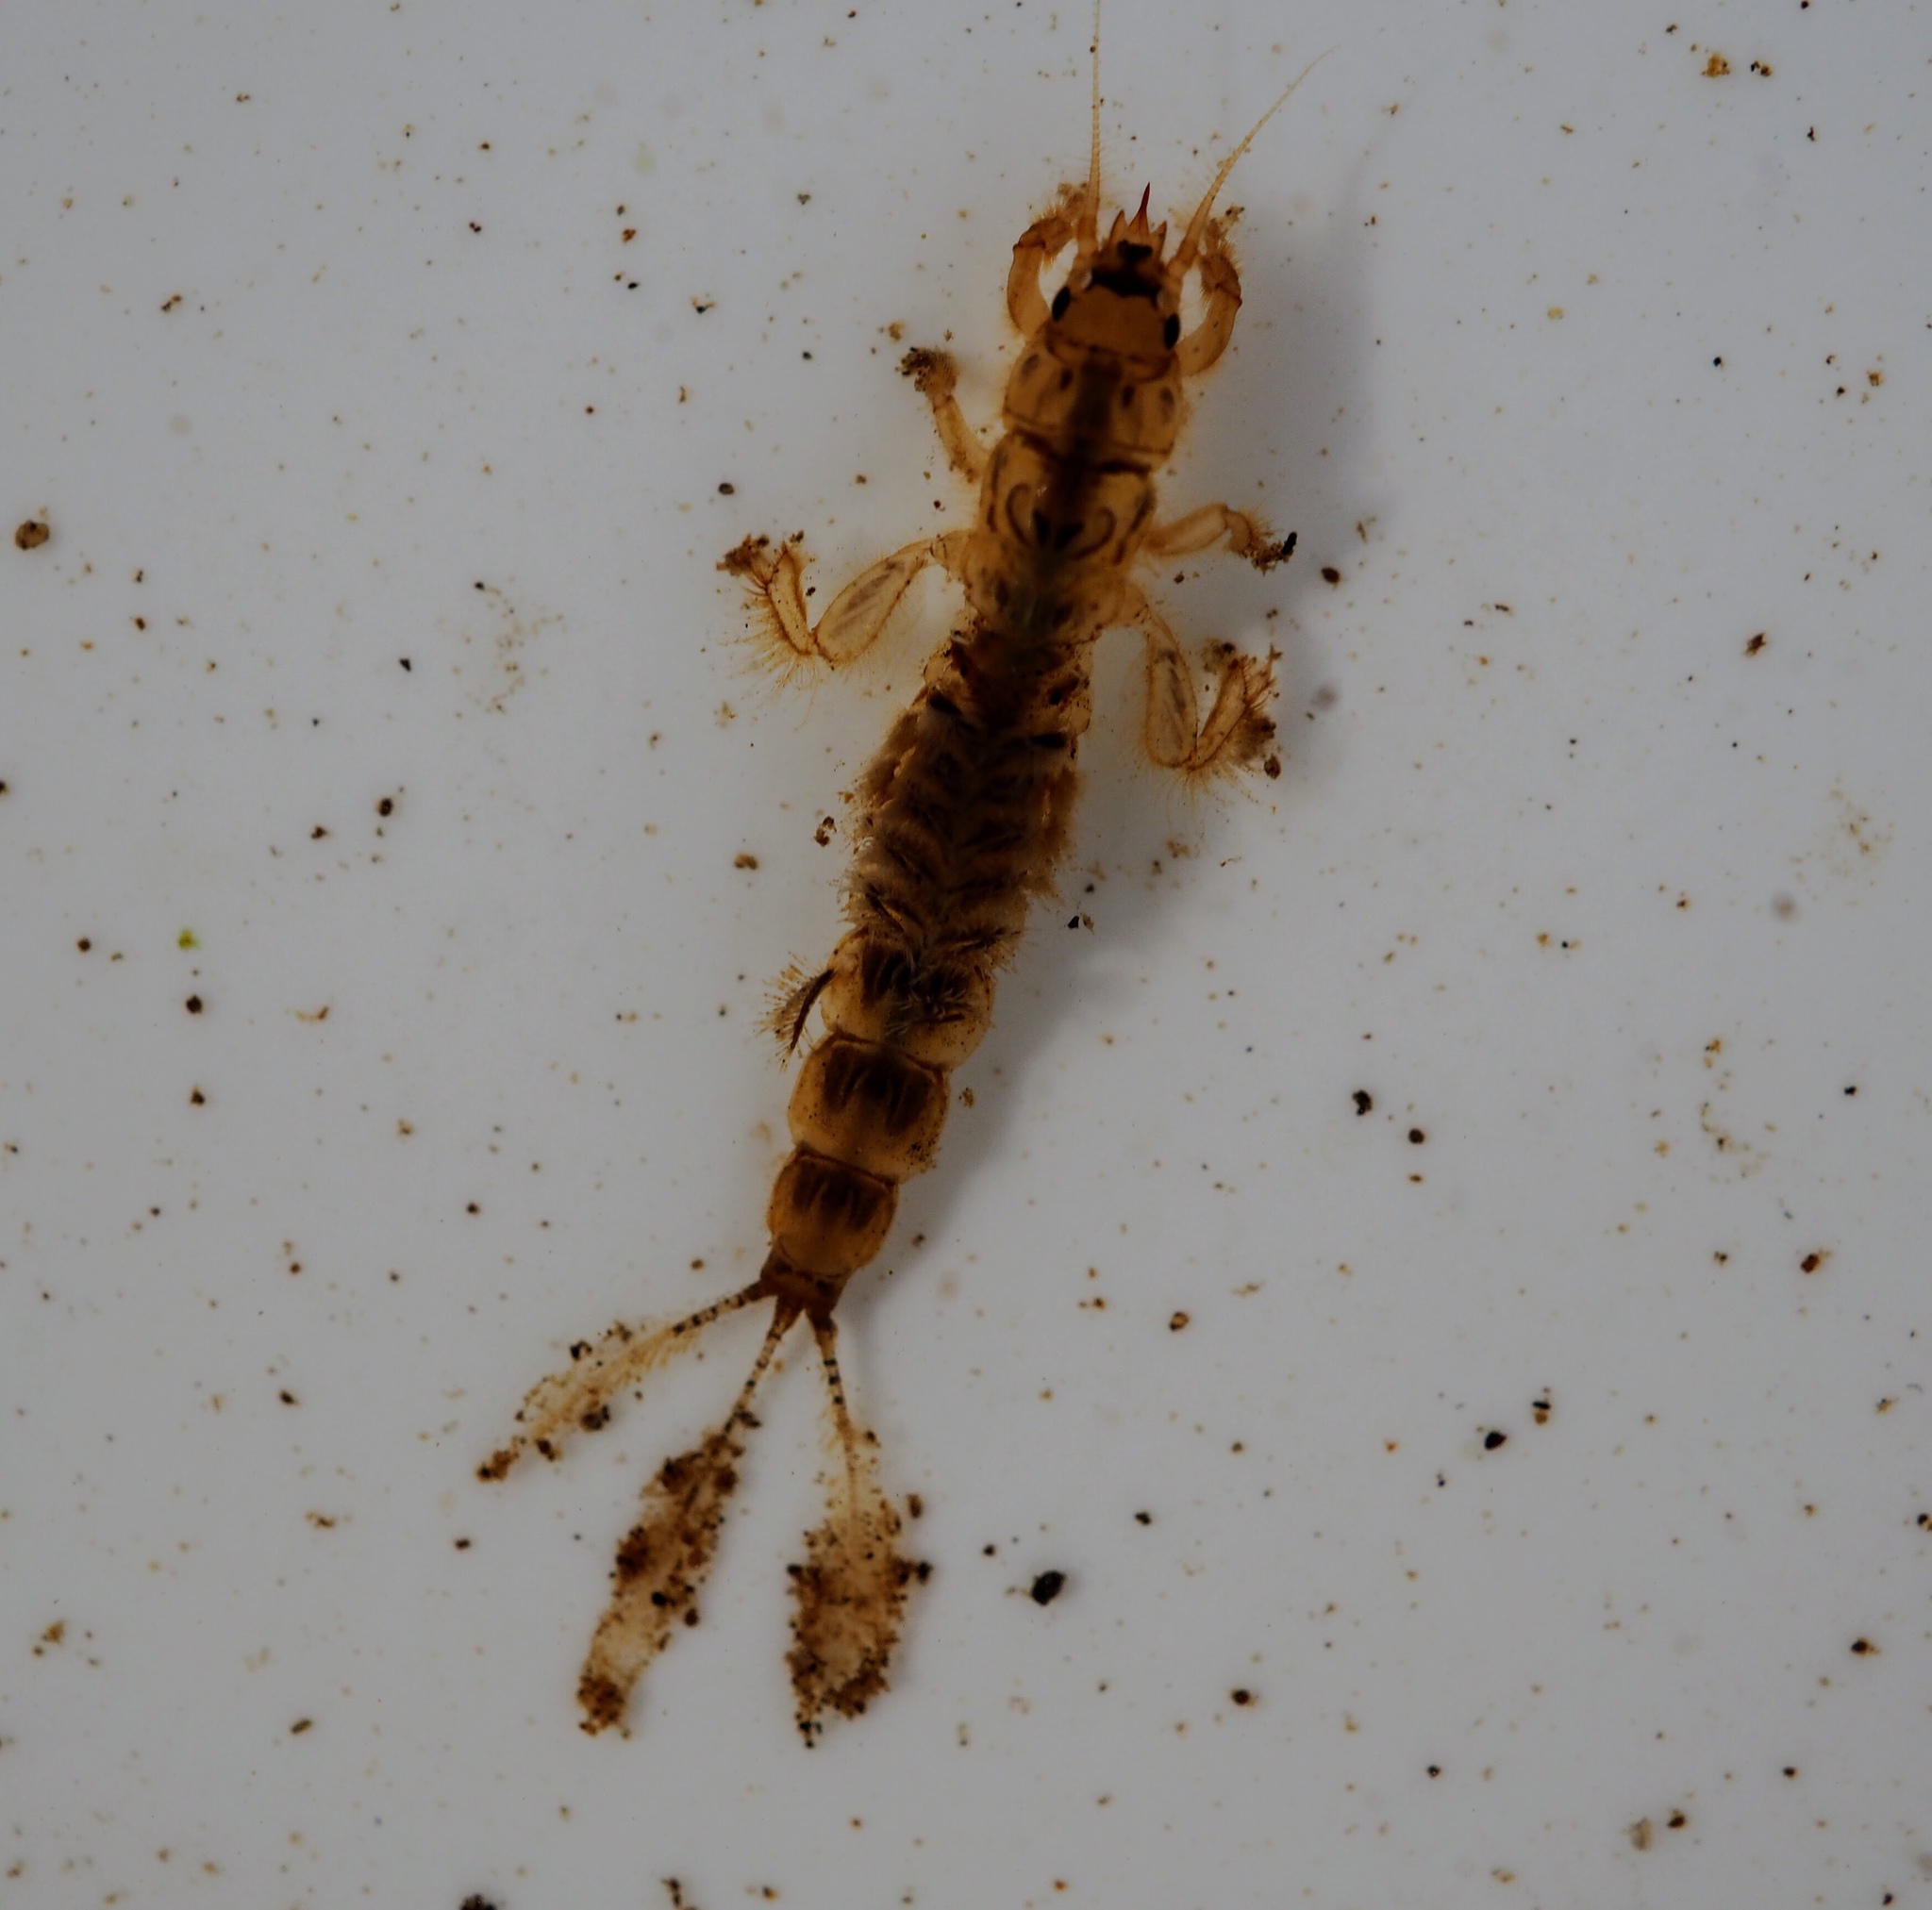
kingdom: Animalia
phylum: Arthropoda
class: Insecta
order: Ephemeroptera
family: Ephemeridae
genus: Ephemera
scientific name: Ephemera danica
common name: Green dun
